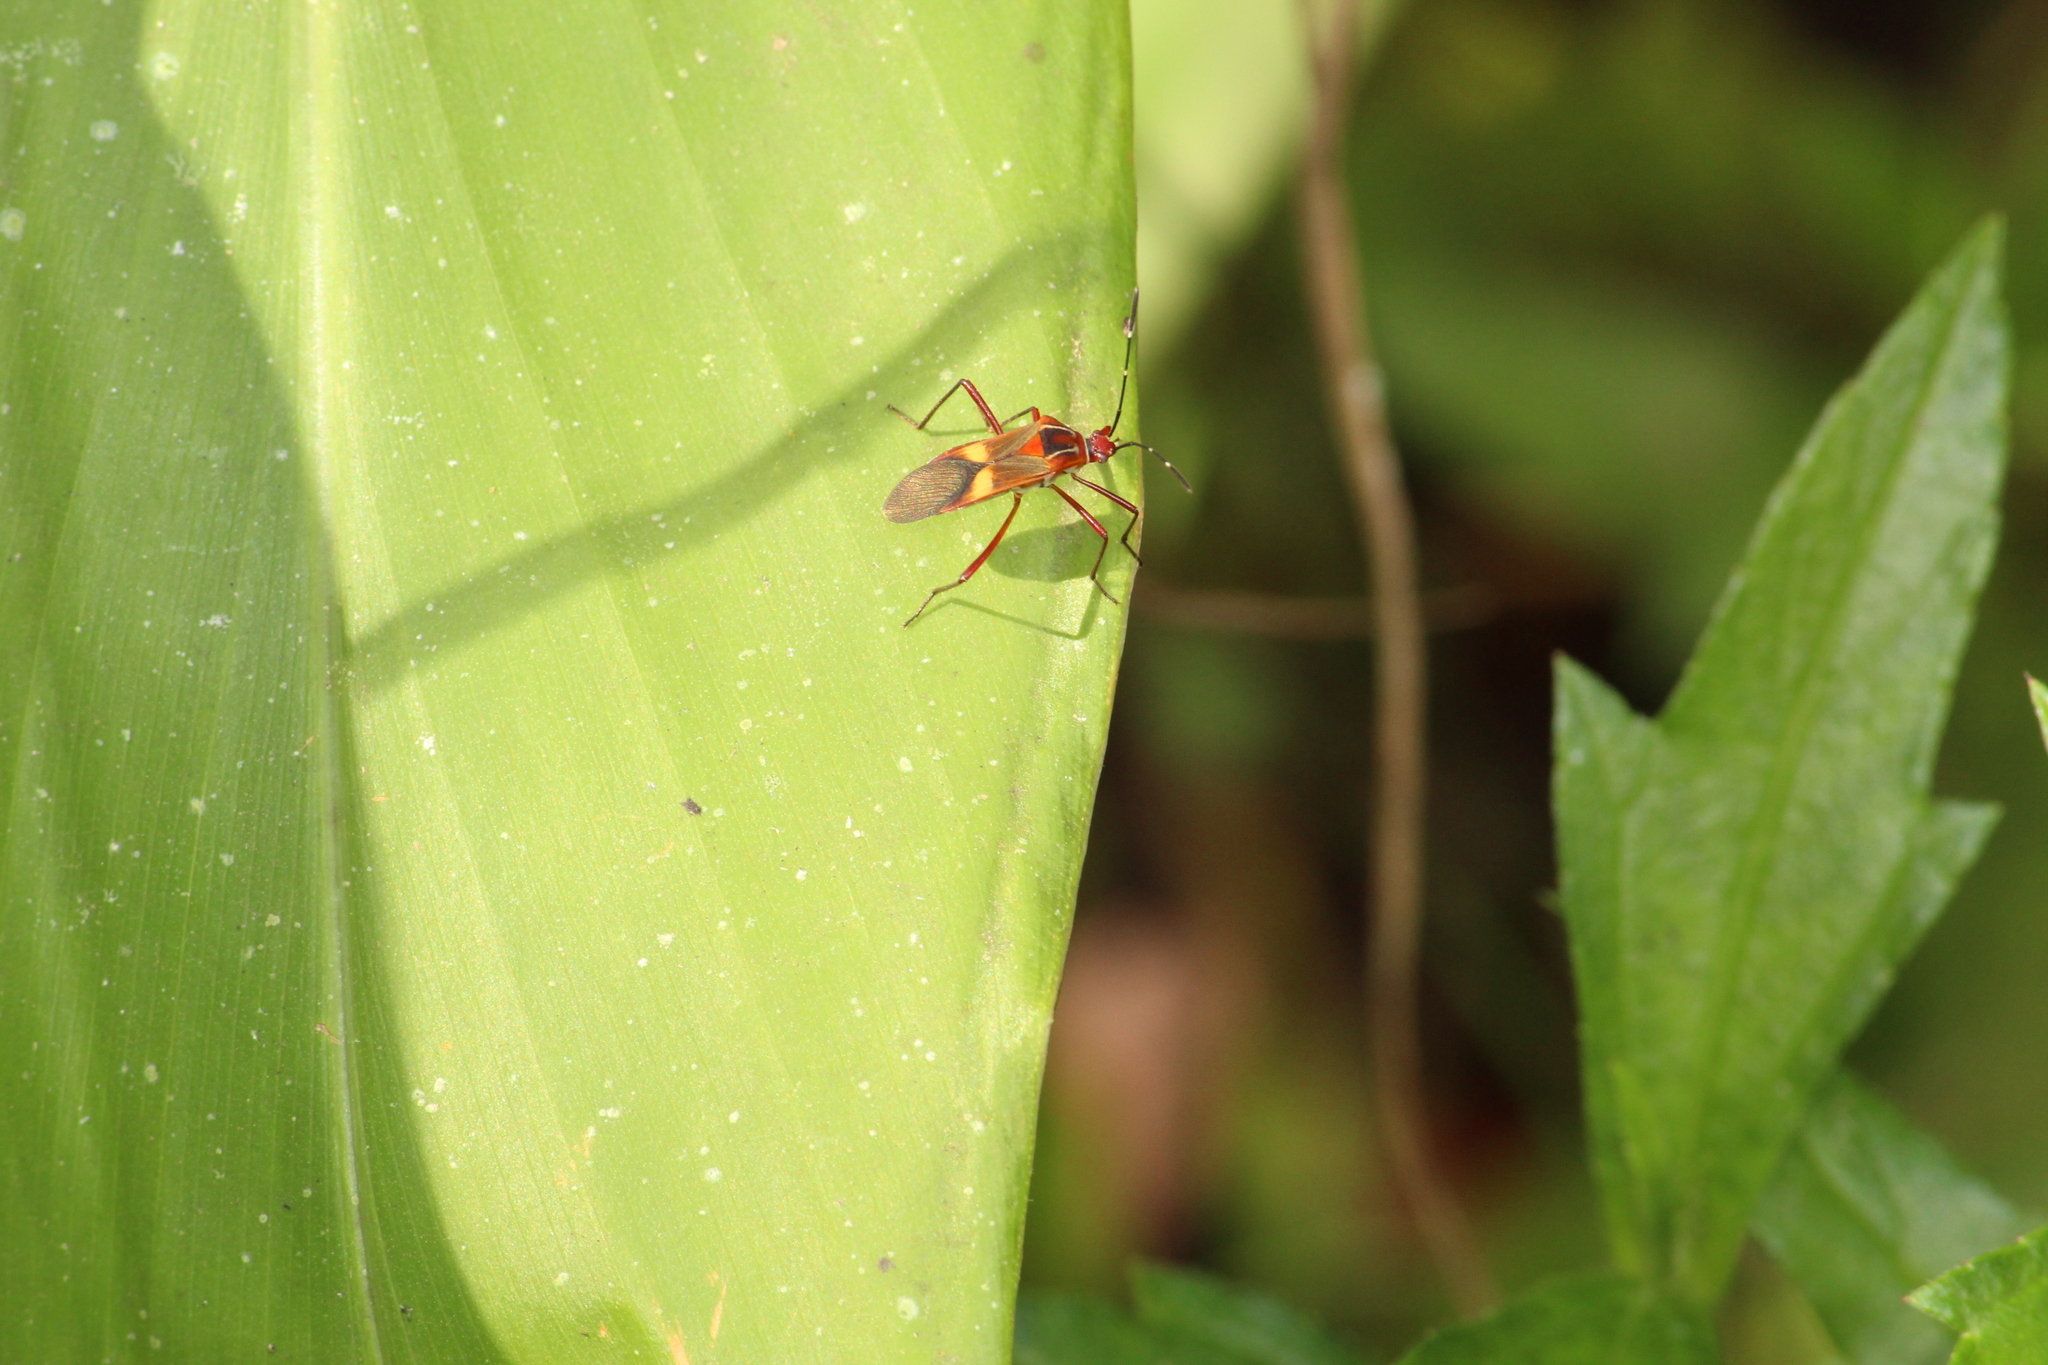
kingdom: Animalia
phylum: Arthropoda
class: Insecta
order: Hemiptera
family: Coreidae
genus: Hypselonotus
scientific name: Hypselonotus interruptus
